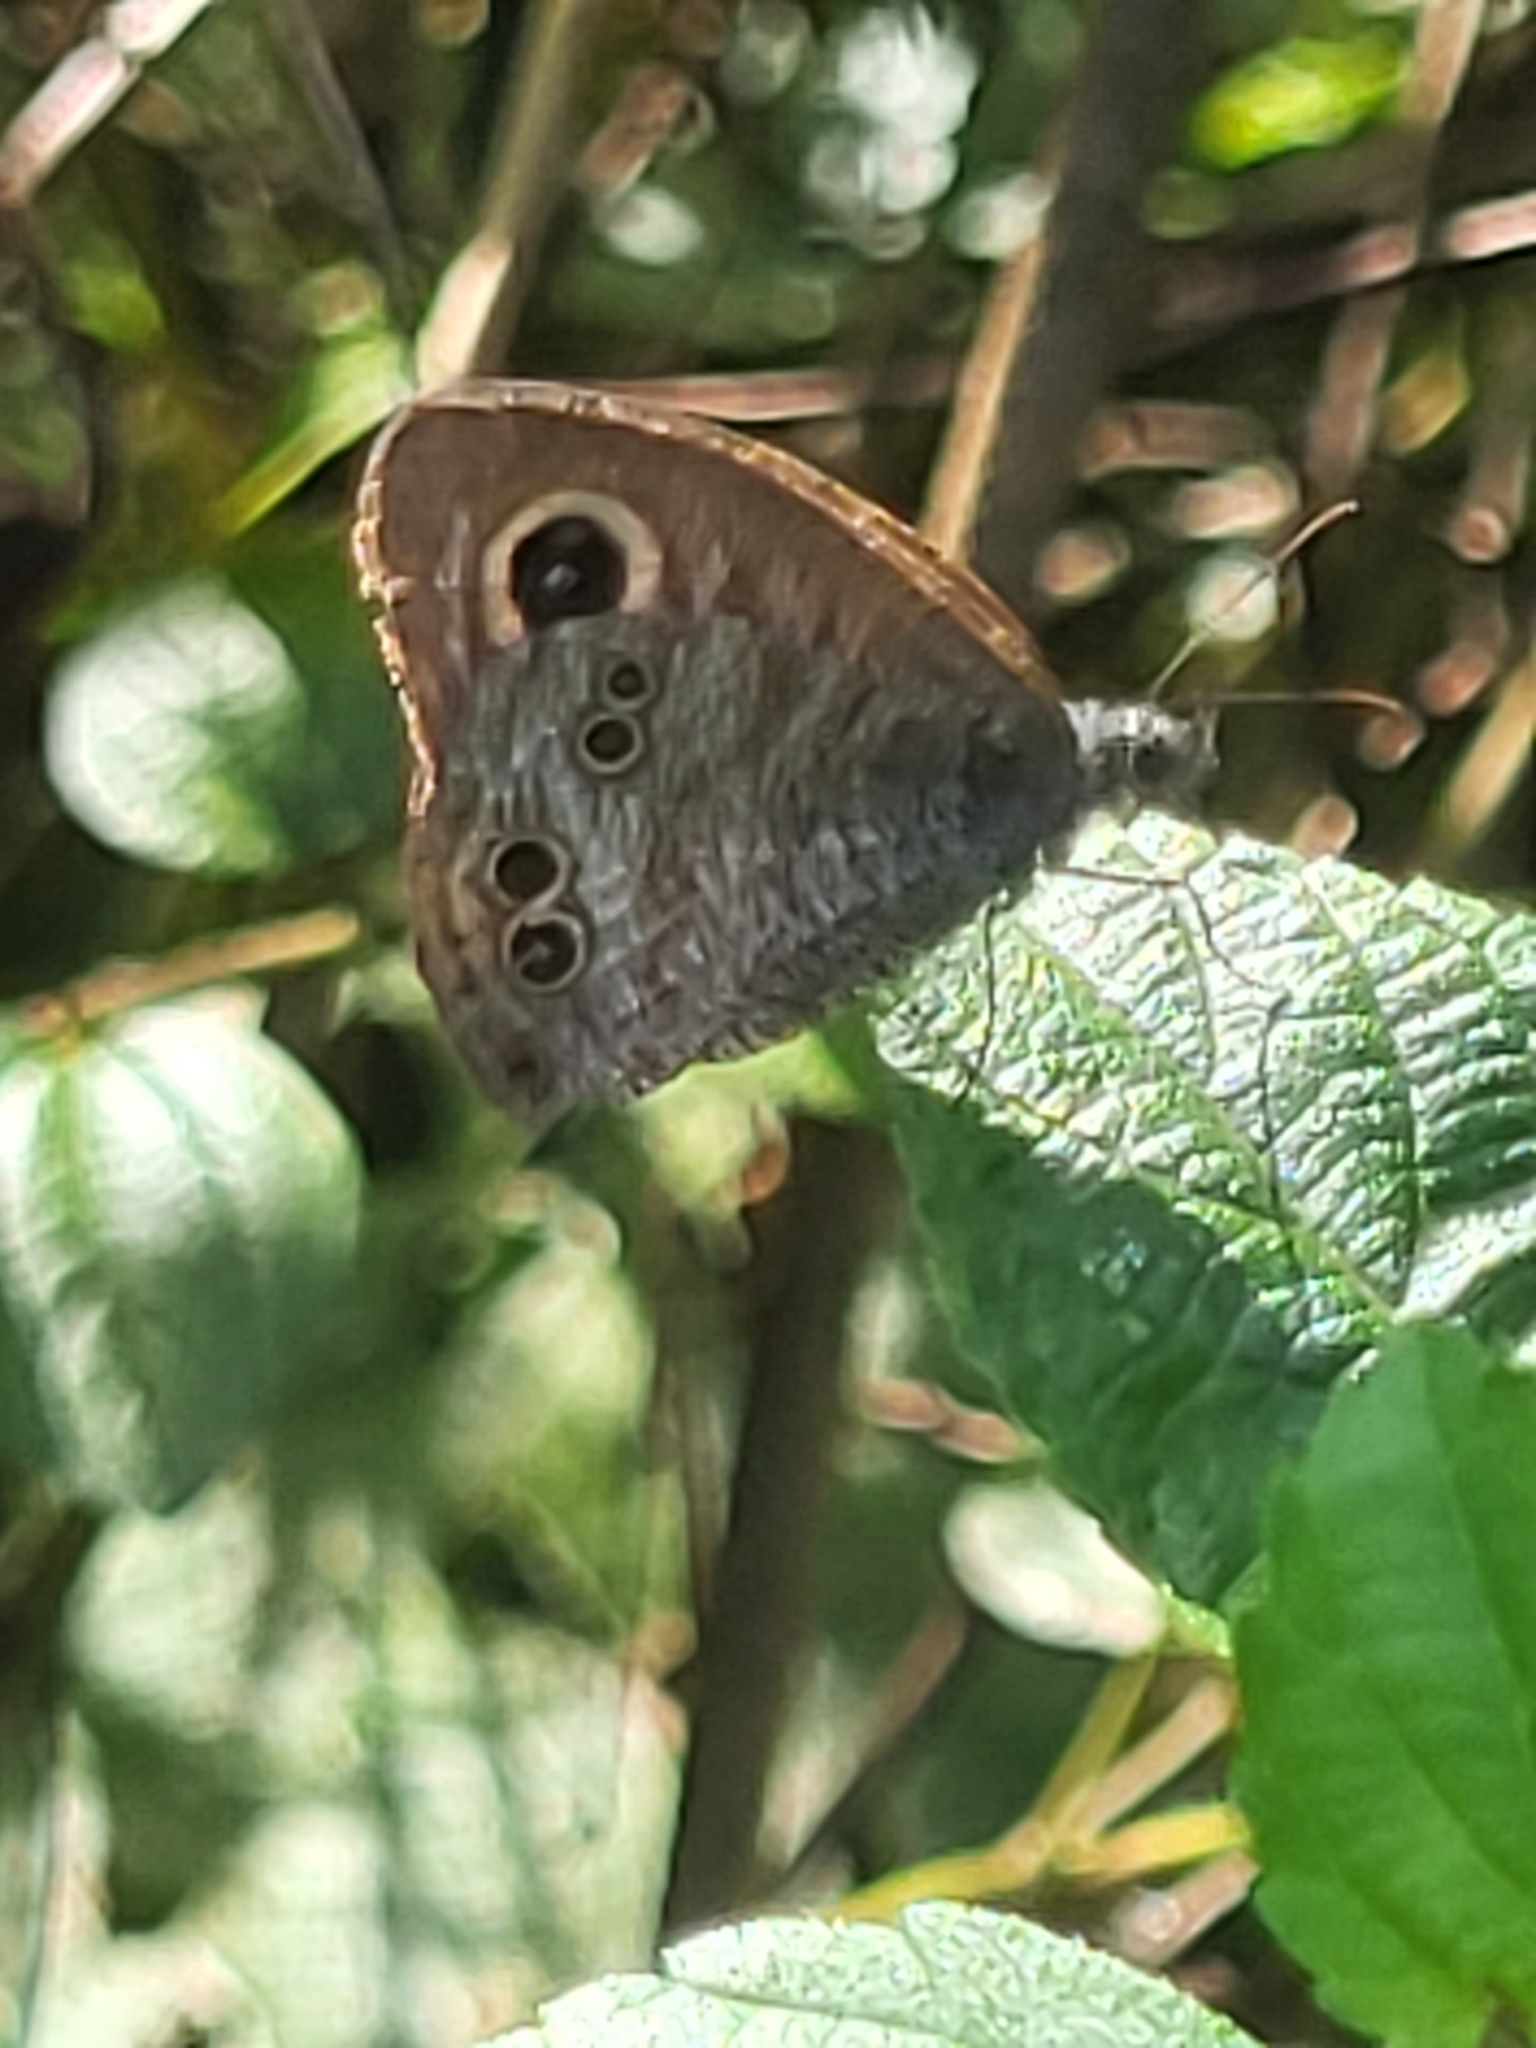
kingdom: Animalia
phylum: Arthropoda
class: Insecta
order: Lepidoptera
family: Nymphalidae
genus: Ypthima
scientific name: Ypthima baldus
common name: Common five-ring
